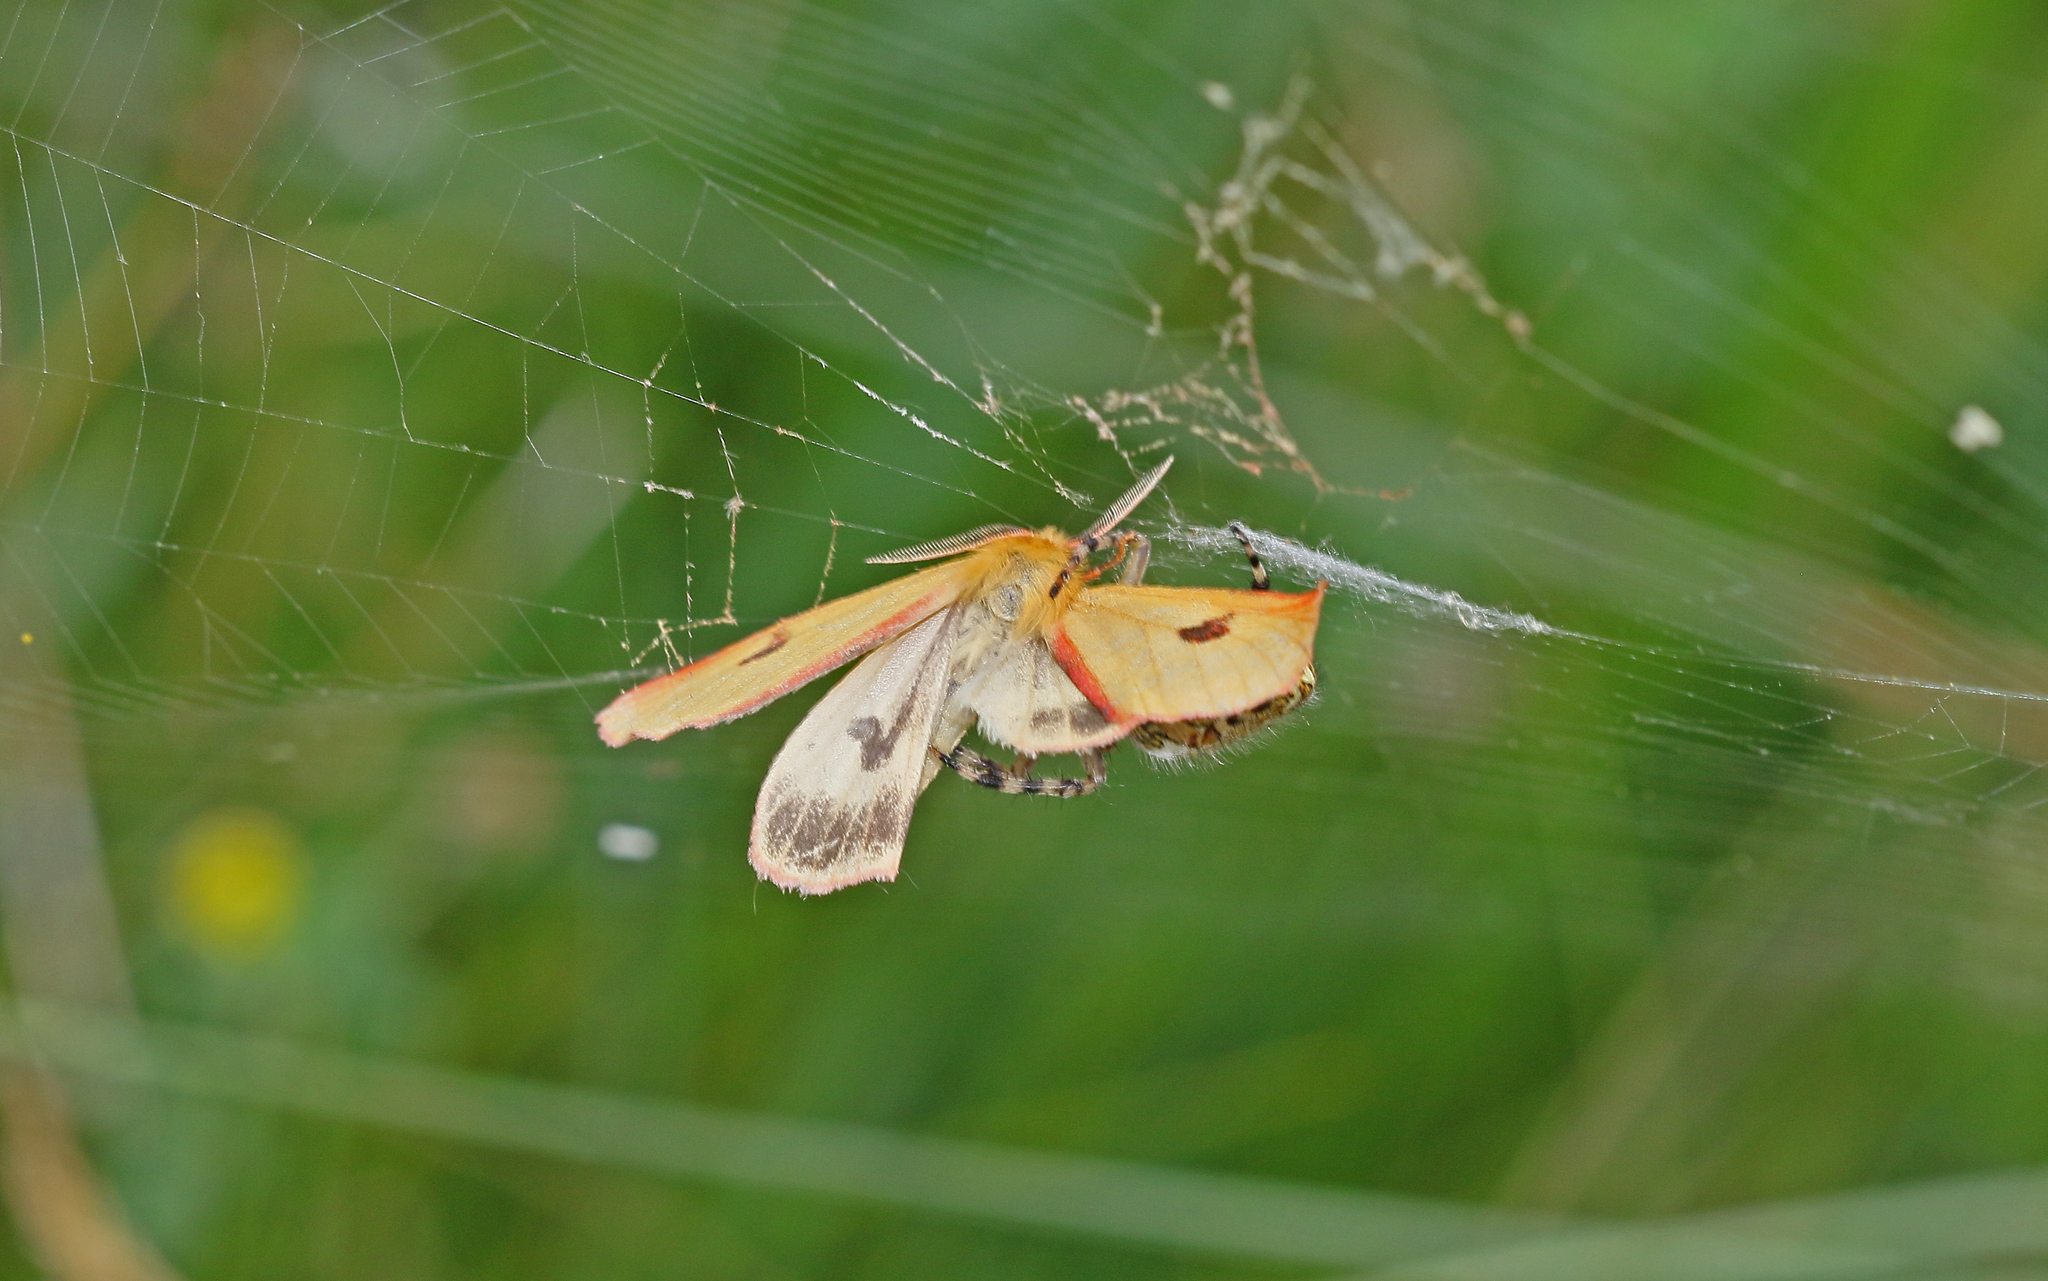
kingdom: Animalia
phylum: Arthropoda
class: Insecta
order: Lepidoptera
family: Erebidae
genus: Diacrisia
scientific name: Diacrisia sannio
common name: Clouded buff
